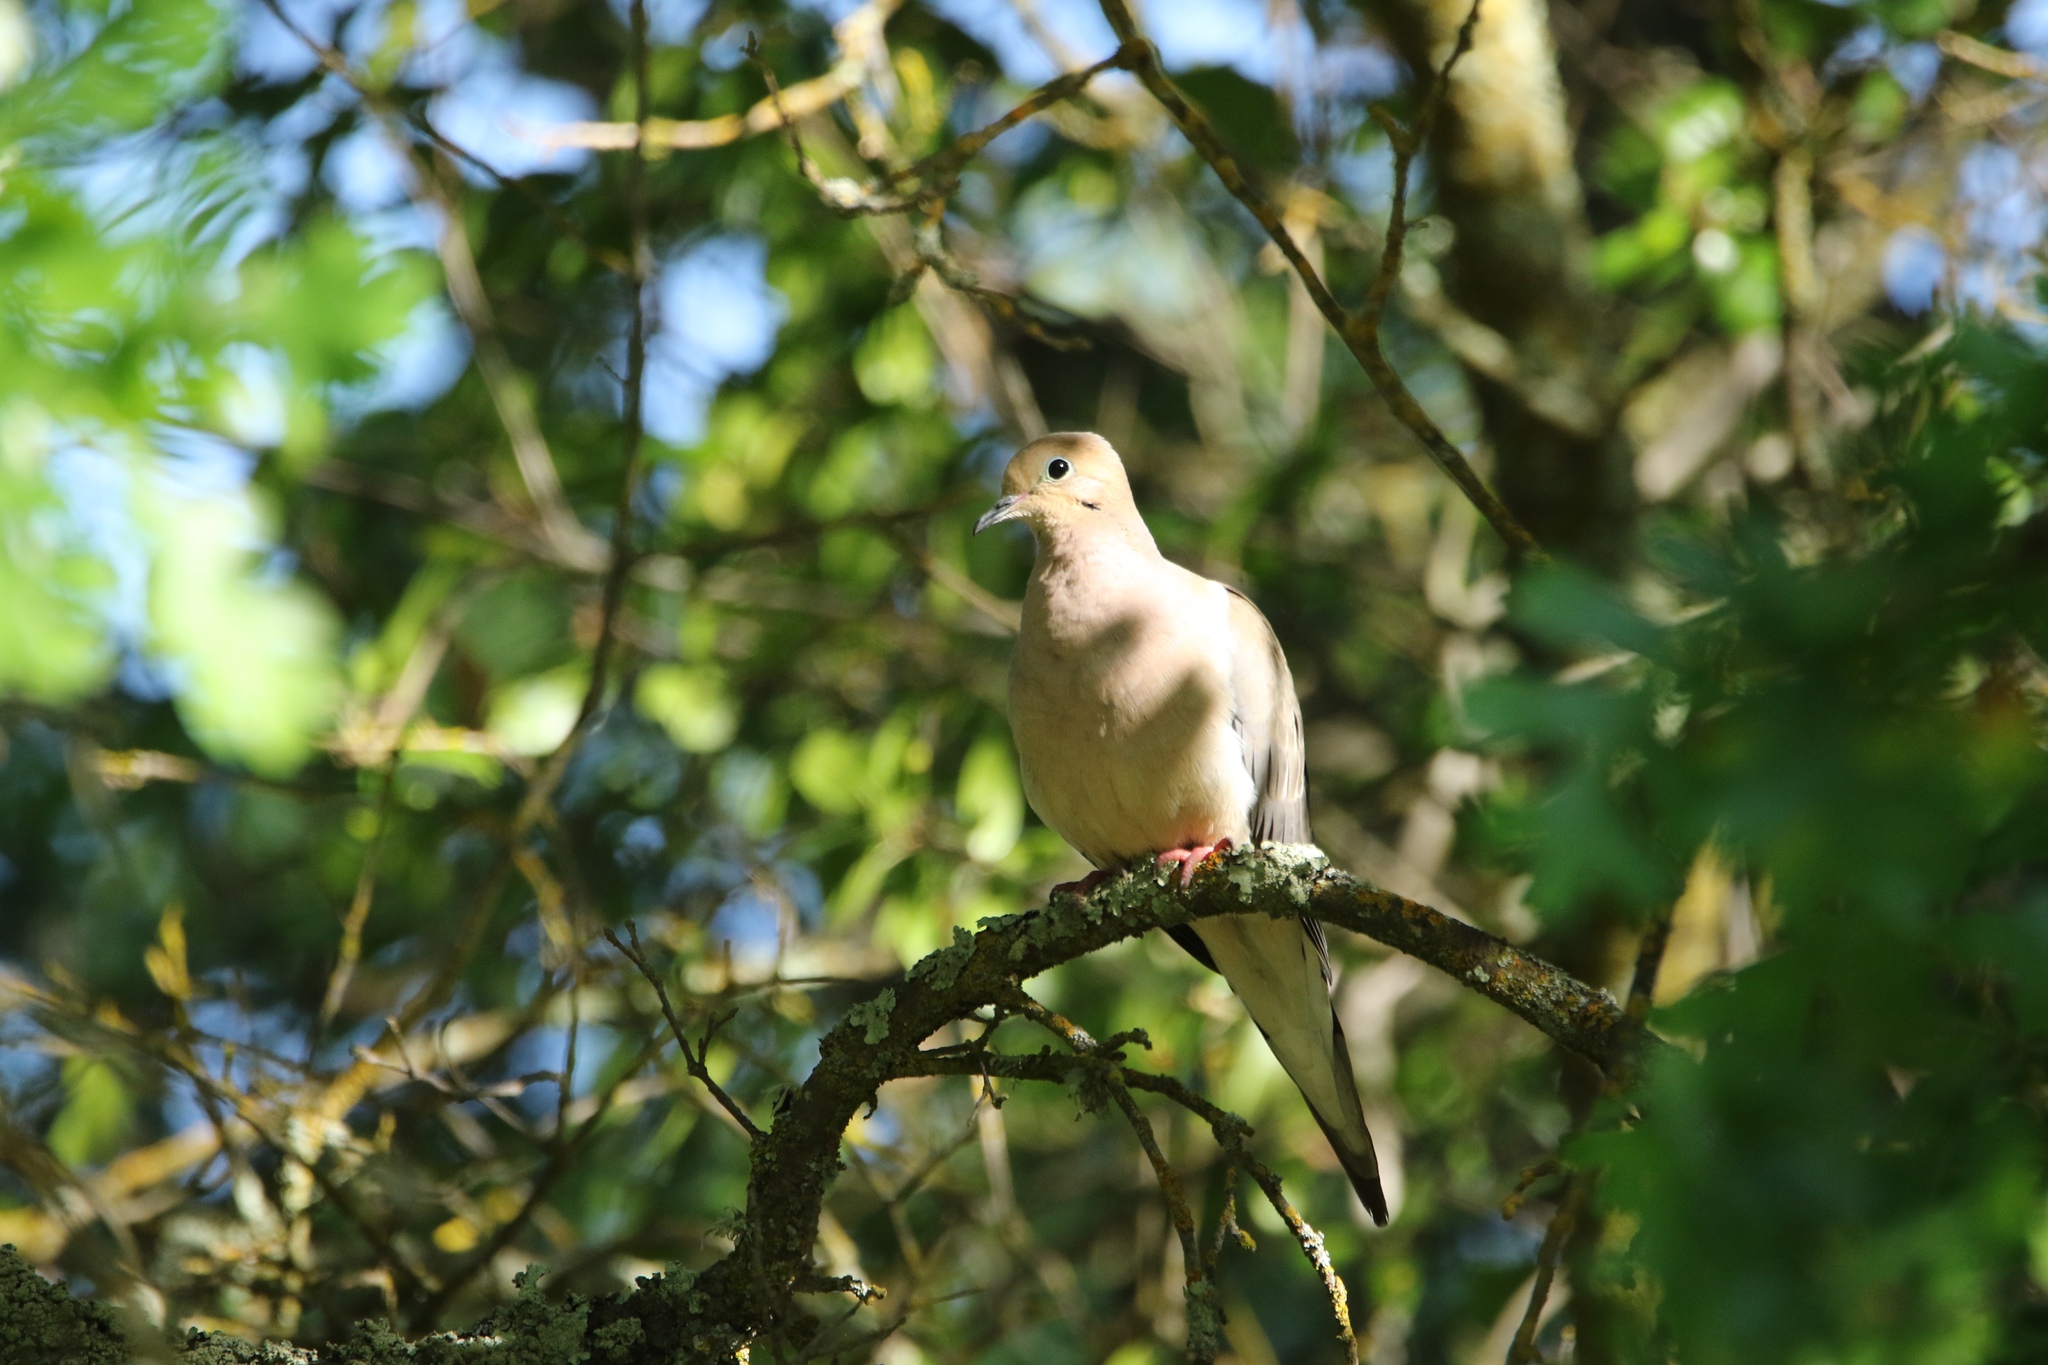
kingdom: Animalia
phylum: Chordata
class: Aves
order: Columbiformes
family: Columbidae
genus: Zenaida
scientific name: Zenaida macroura
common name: Mourning dove
